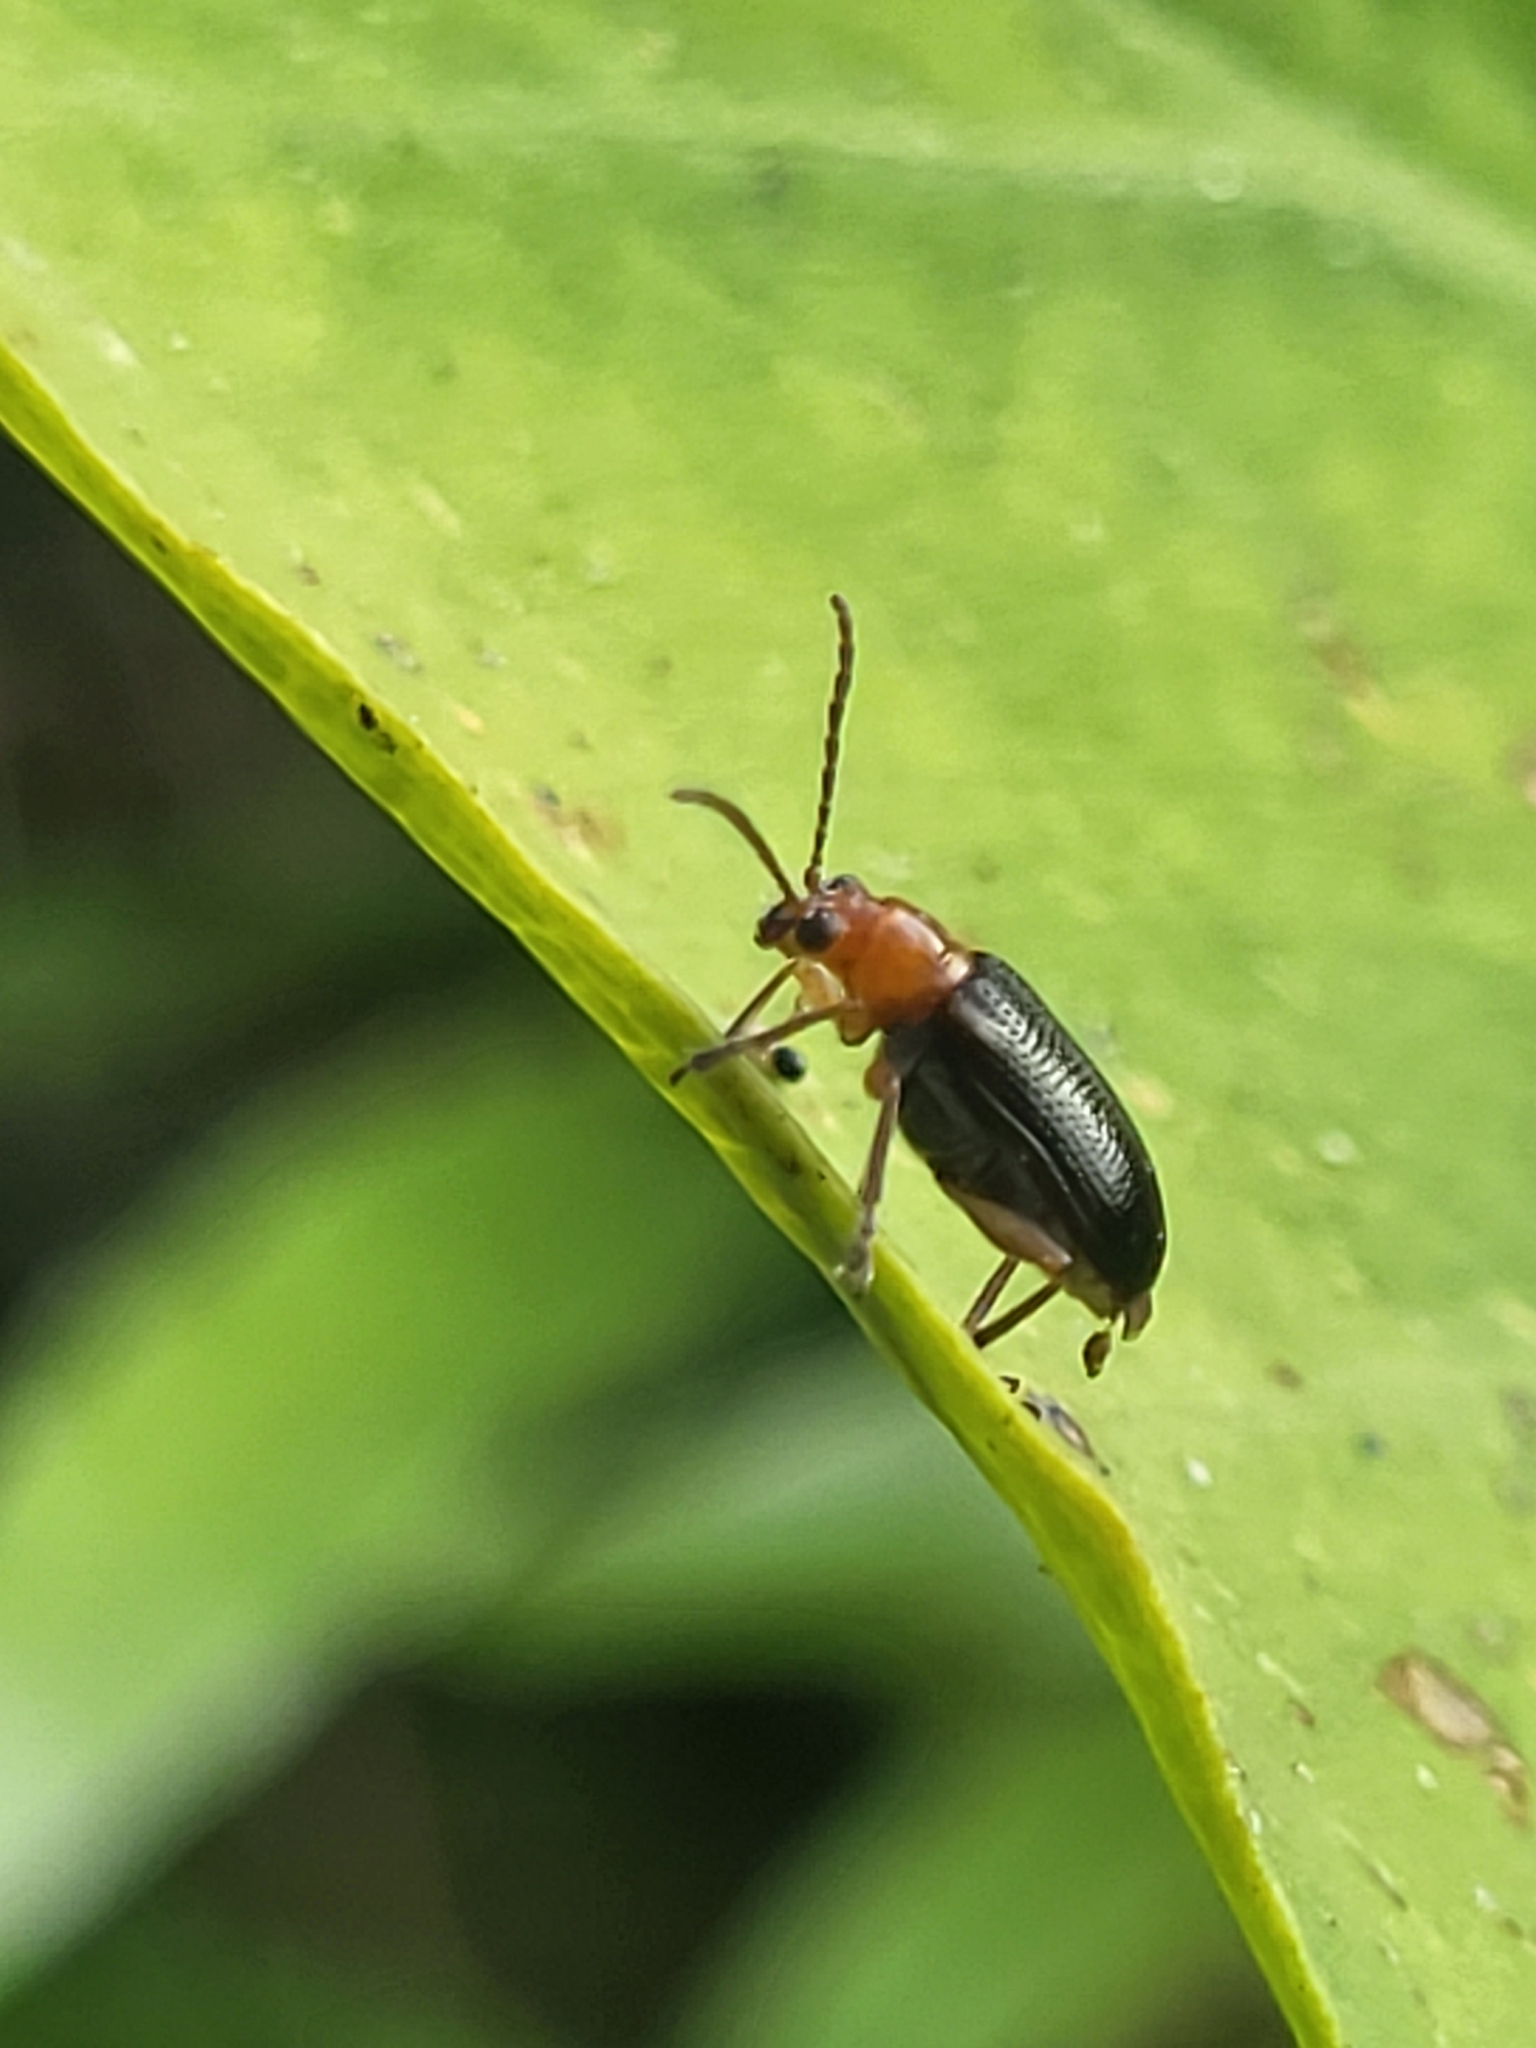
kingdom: Animalia
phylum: Arthropoda
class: Insecta
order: Coleoptera
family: Chrysomelidae
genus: Lema
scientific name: Lema praeusta
